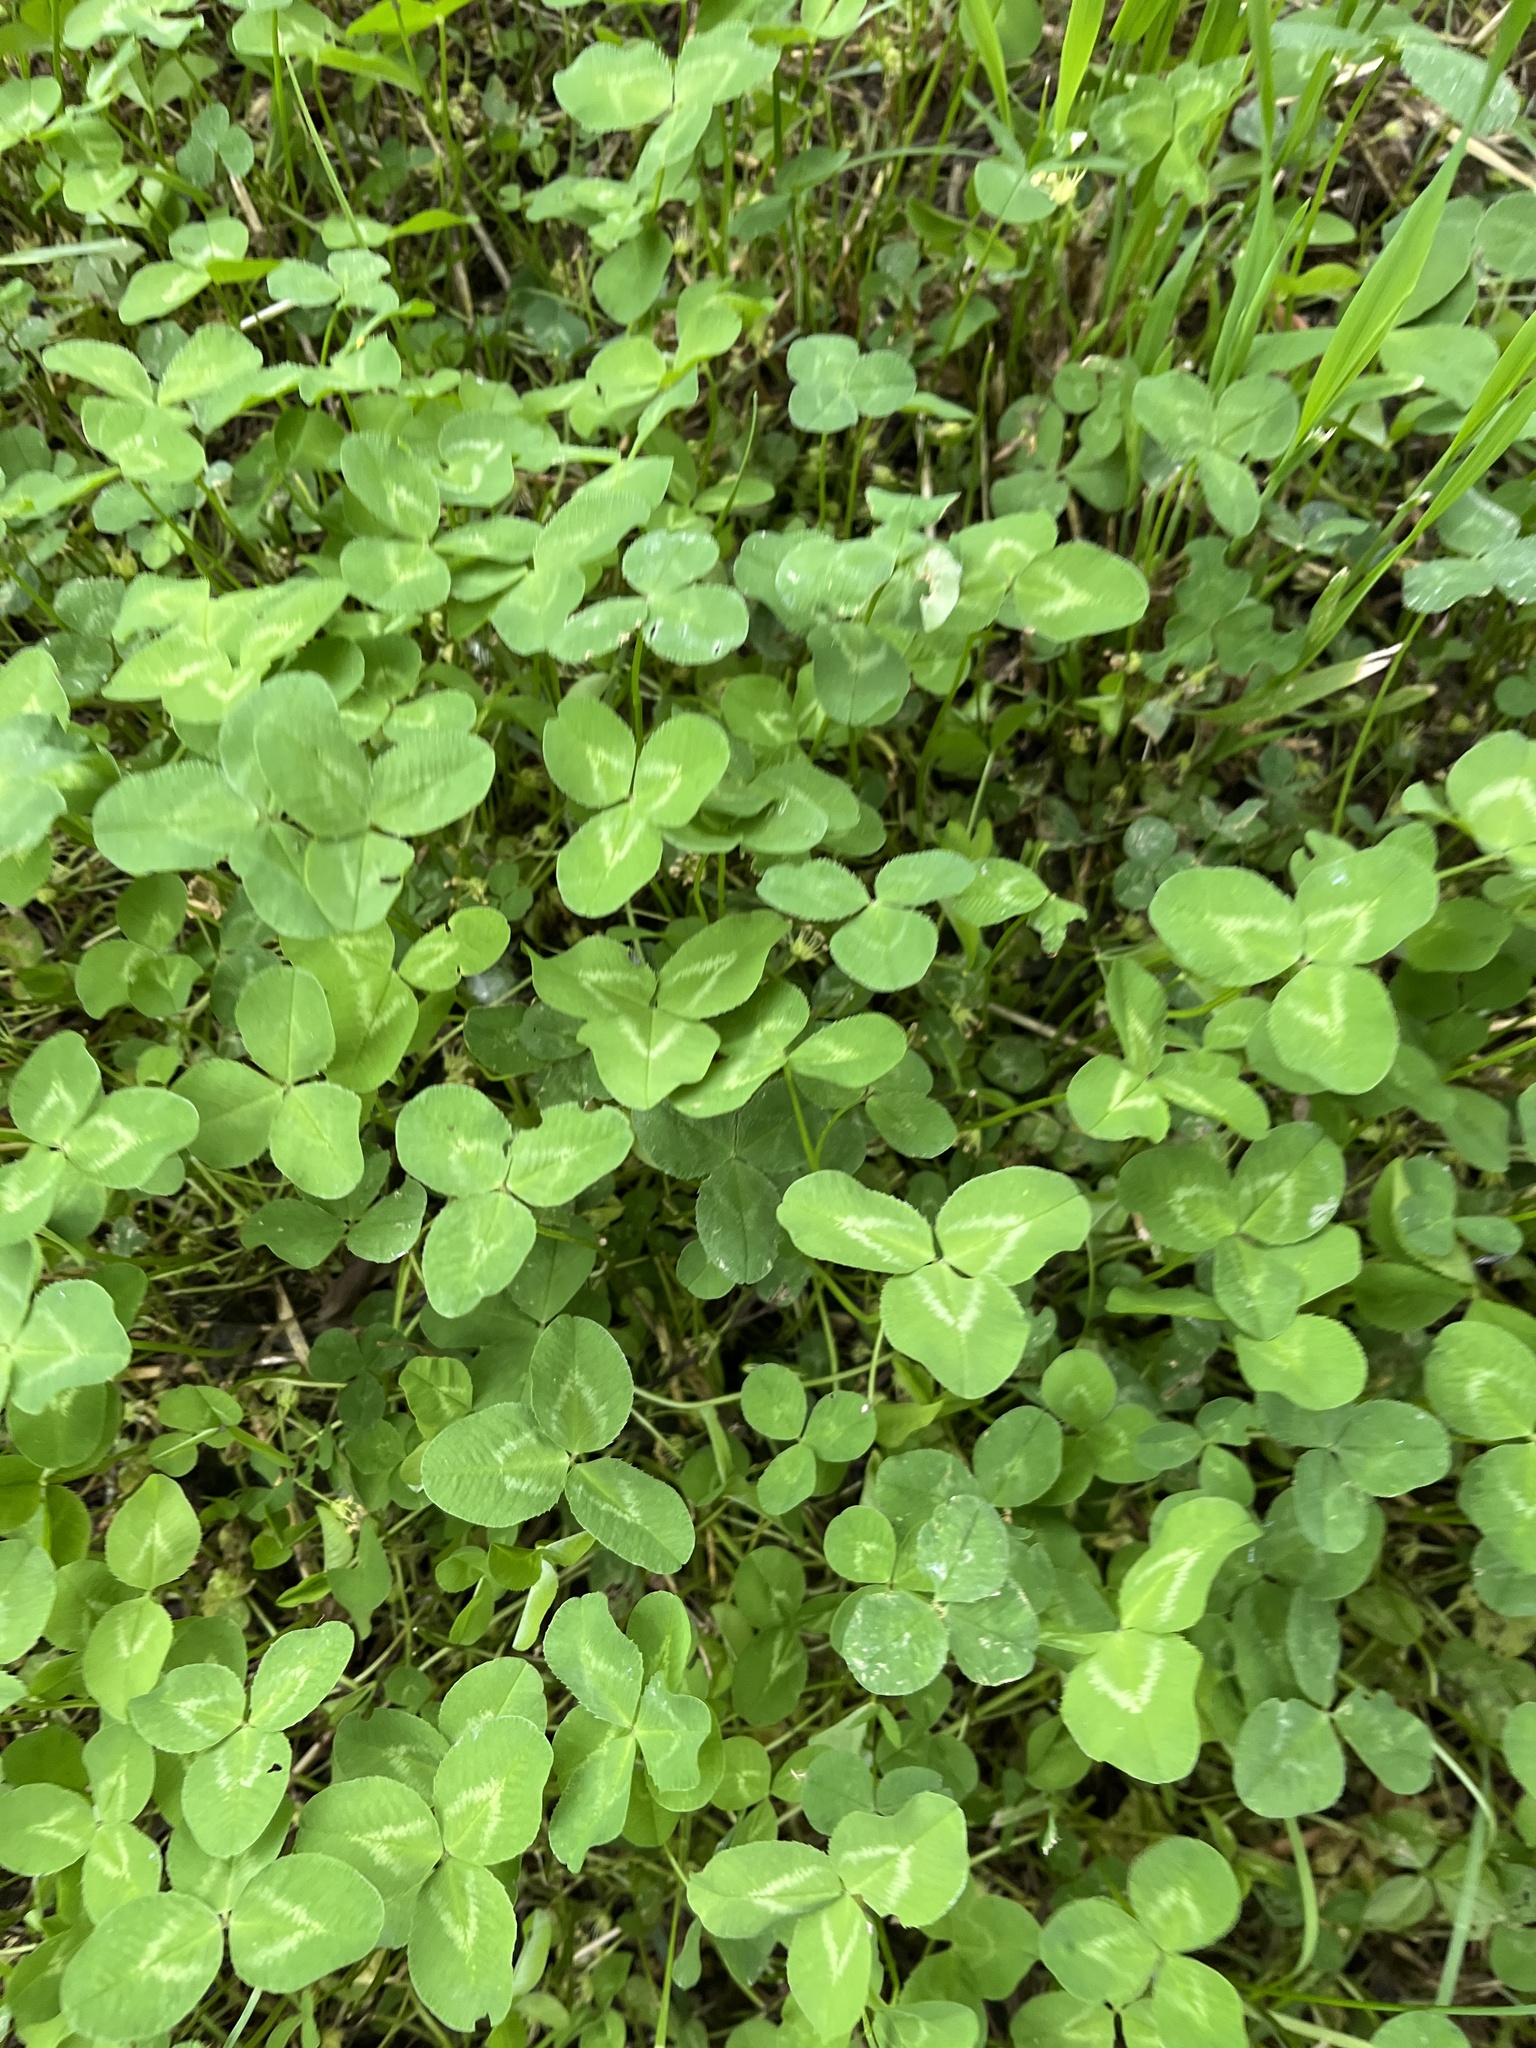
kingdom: Plantae
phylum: Tracheophyta
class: Magnoliopsida
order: Fabales
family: Fabaceae
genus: Trifolium
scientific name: Trifolium repens
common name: White clover
